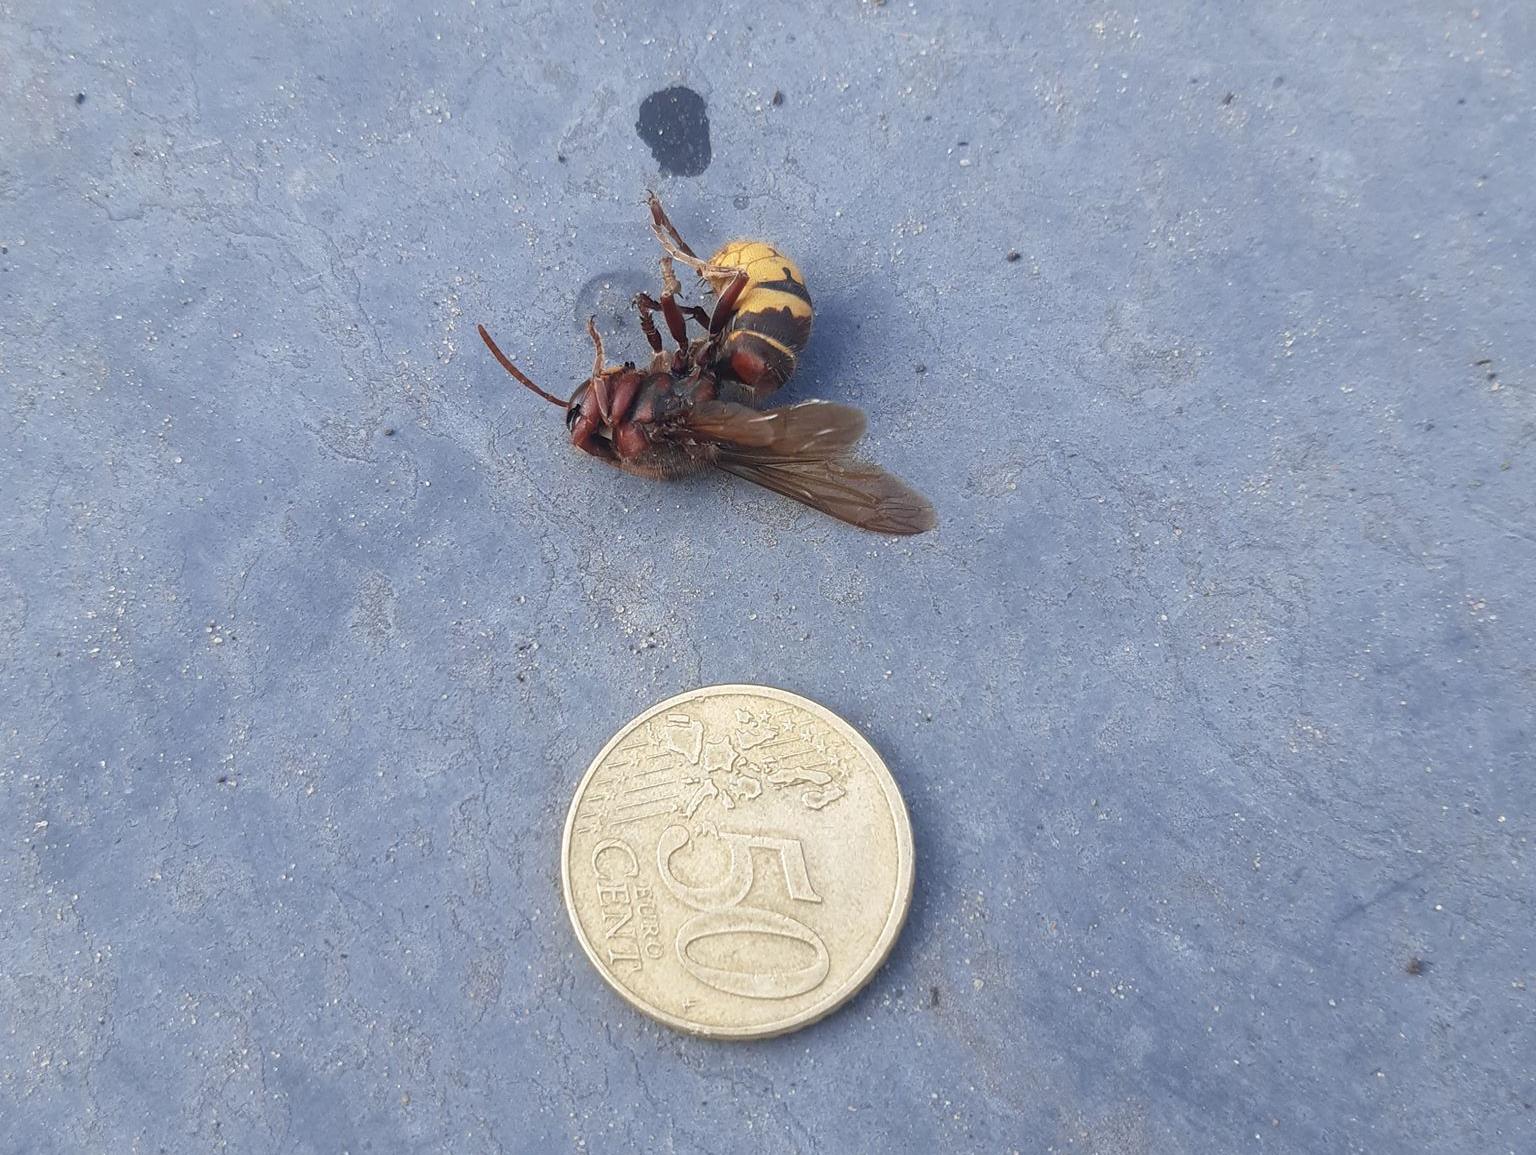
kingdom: Animalia
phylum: Arthropoda
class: Insecta
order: Hymenoptera
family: Vespidae
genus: Vespa
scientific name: Vespa crabro
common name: Hornet
